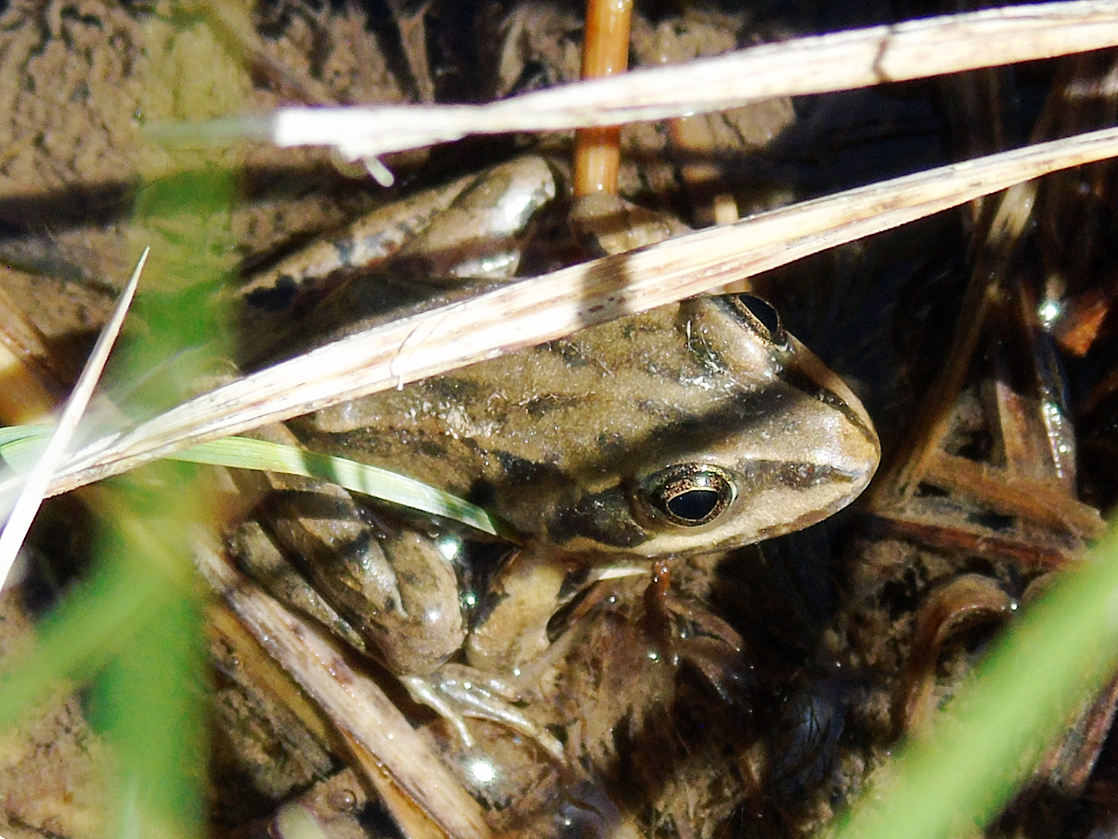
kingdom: Animalia
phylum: Chordata
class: Amphibia
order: Anura
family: Ranidae
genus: Rana
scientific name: Rana asiatica
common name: Central asian brown frog
